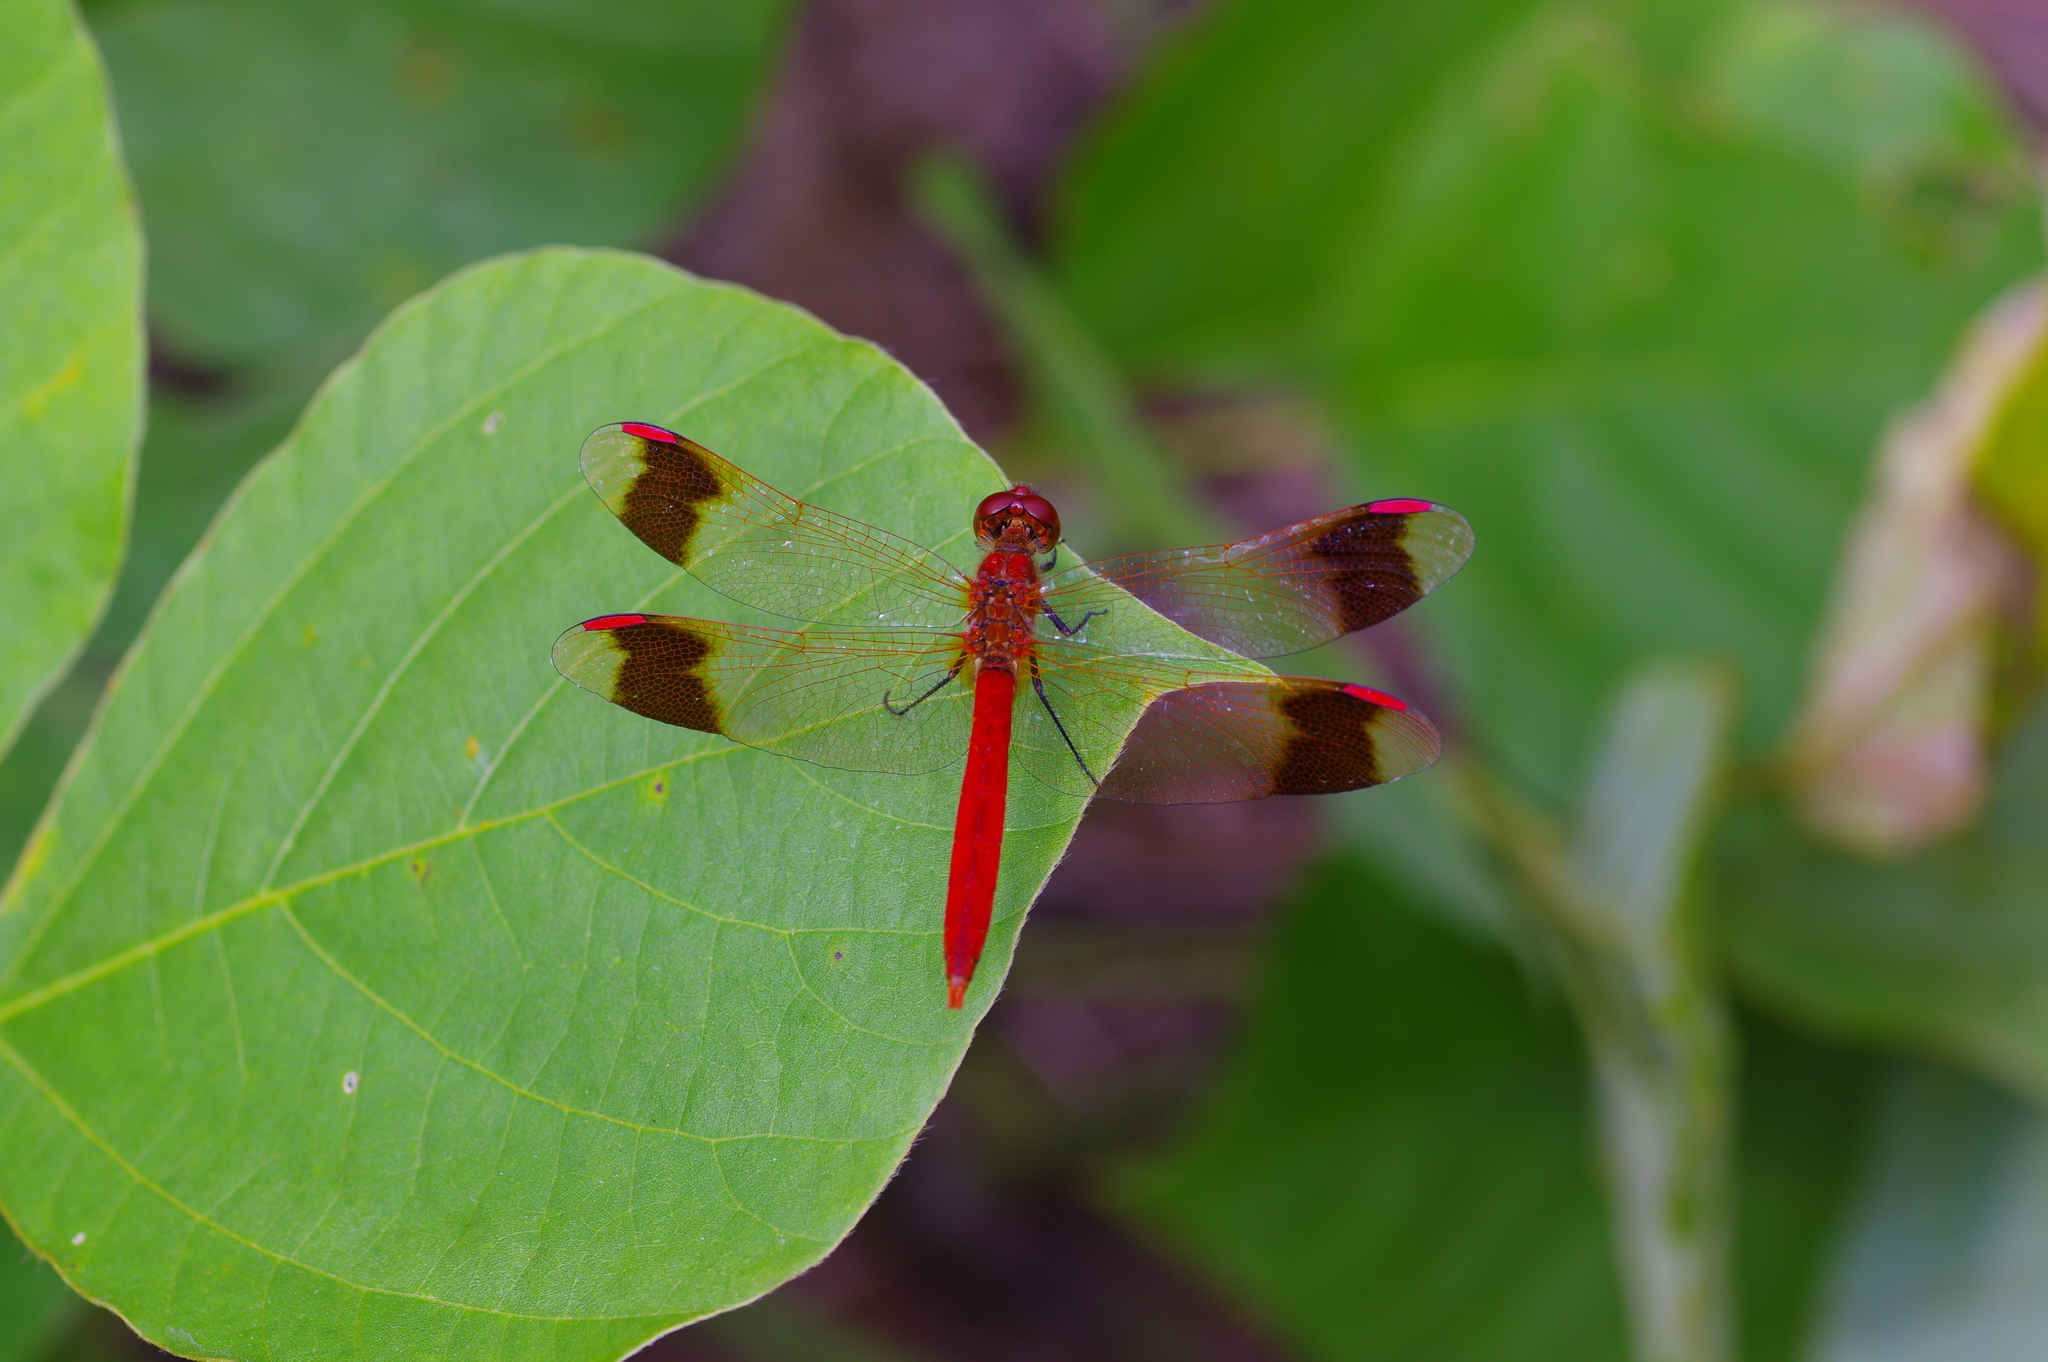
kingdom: Animalia
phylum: Arthropoda
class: Insecta
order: Odonata
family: Libellulidae
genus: Sympetrum
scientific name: Sympetrum pedemontanum
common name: Banded darter
